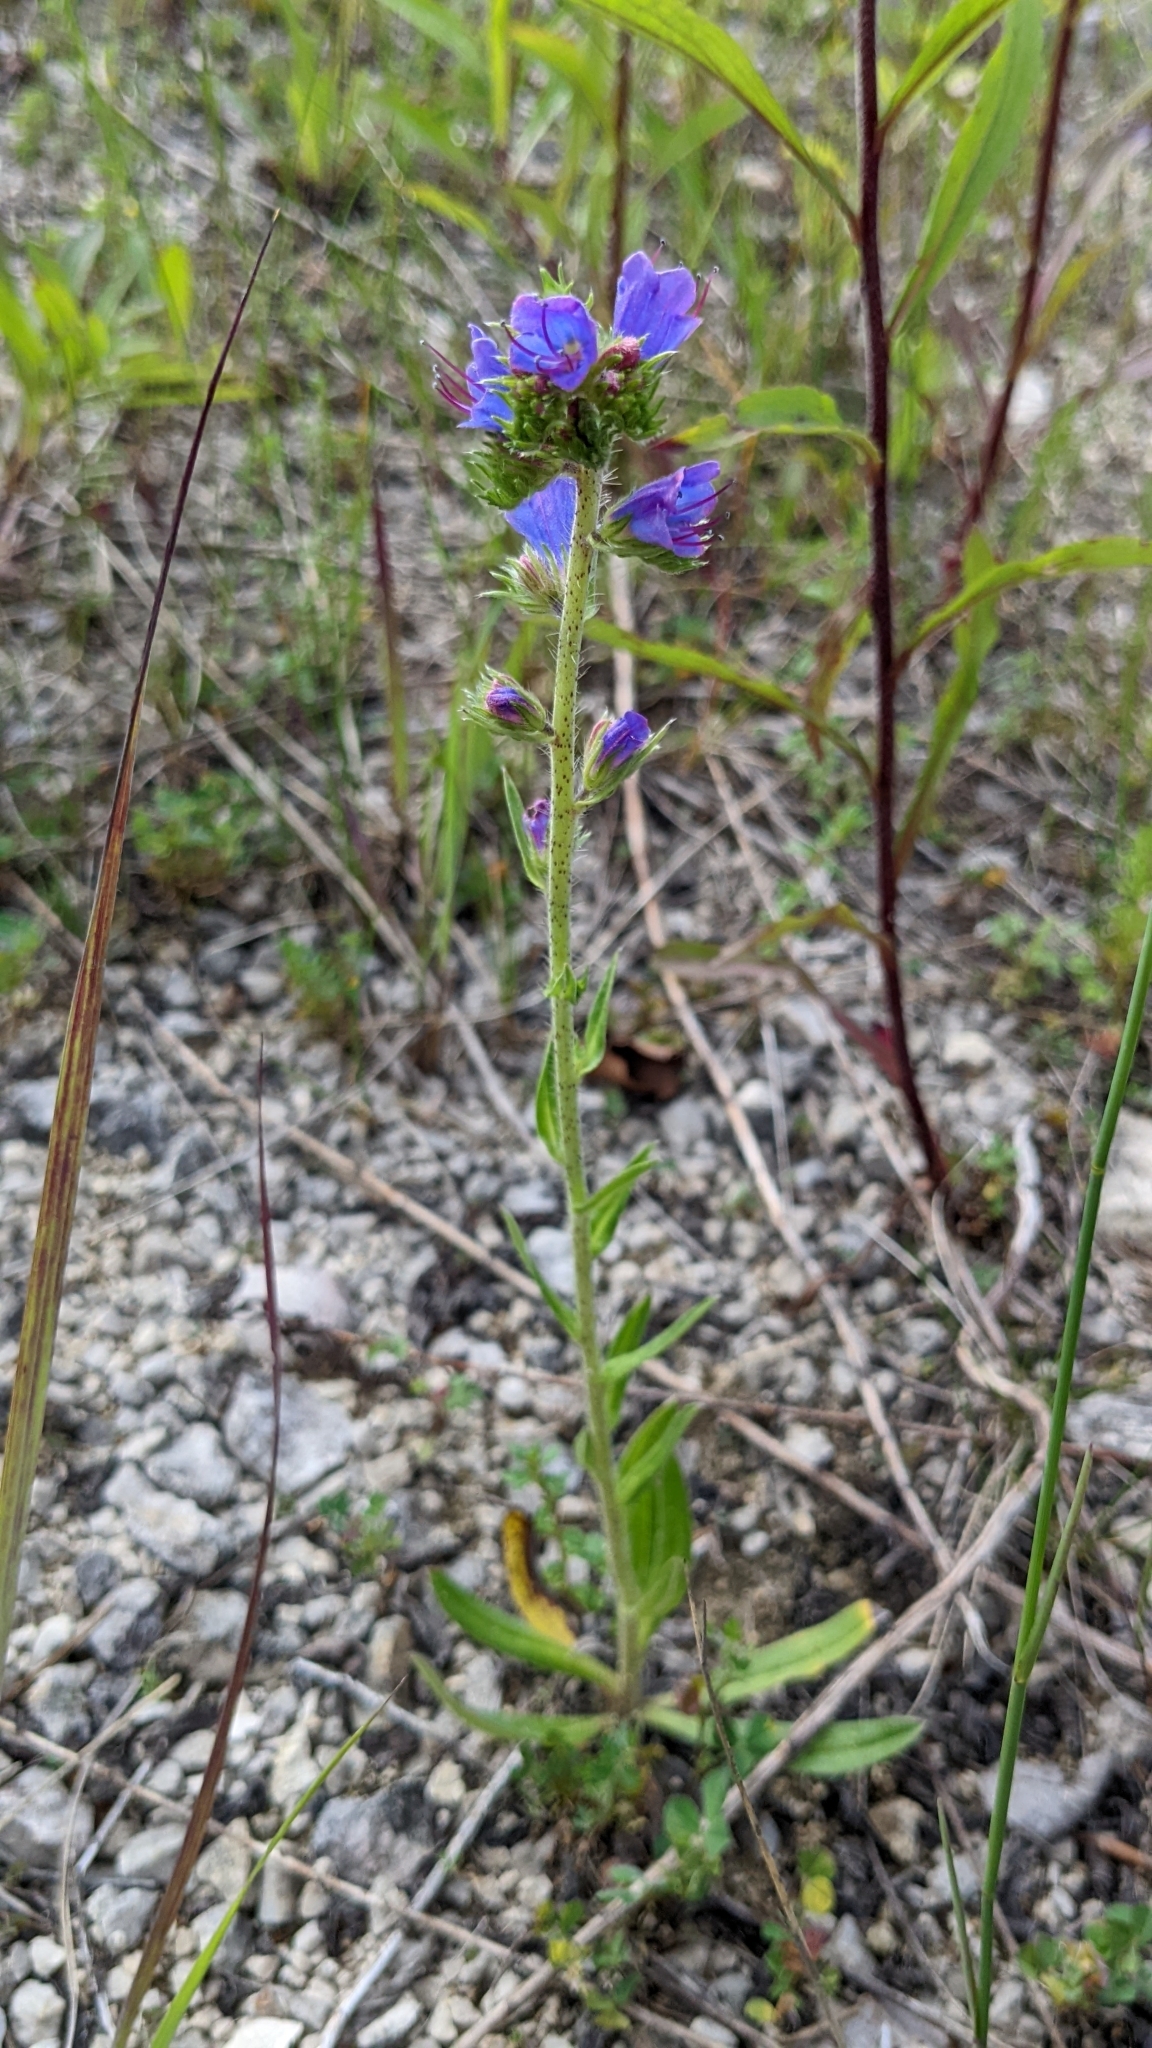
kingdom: Plantae
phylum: Tracheophyta
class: Magnoliopsida
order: Boraginales
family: Boraginaceae
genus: Echium
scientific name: Echium vulgare
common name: Common viper's bugloss
